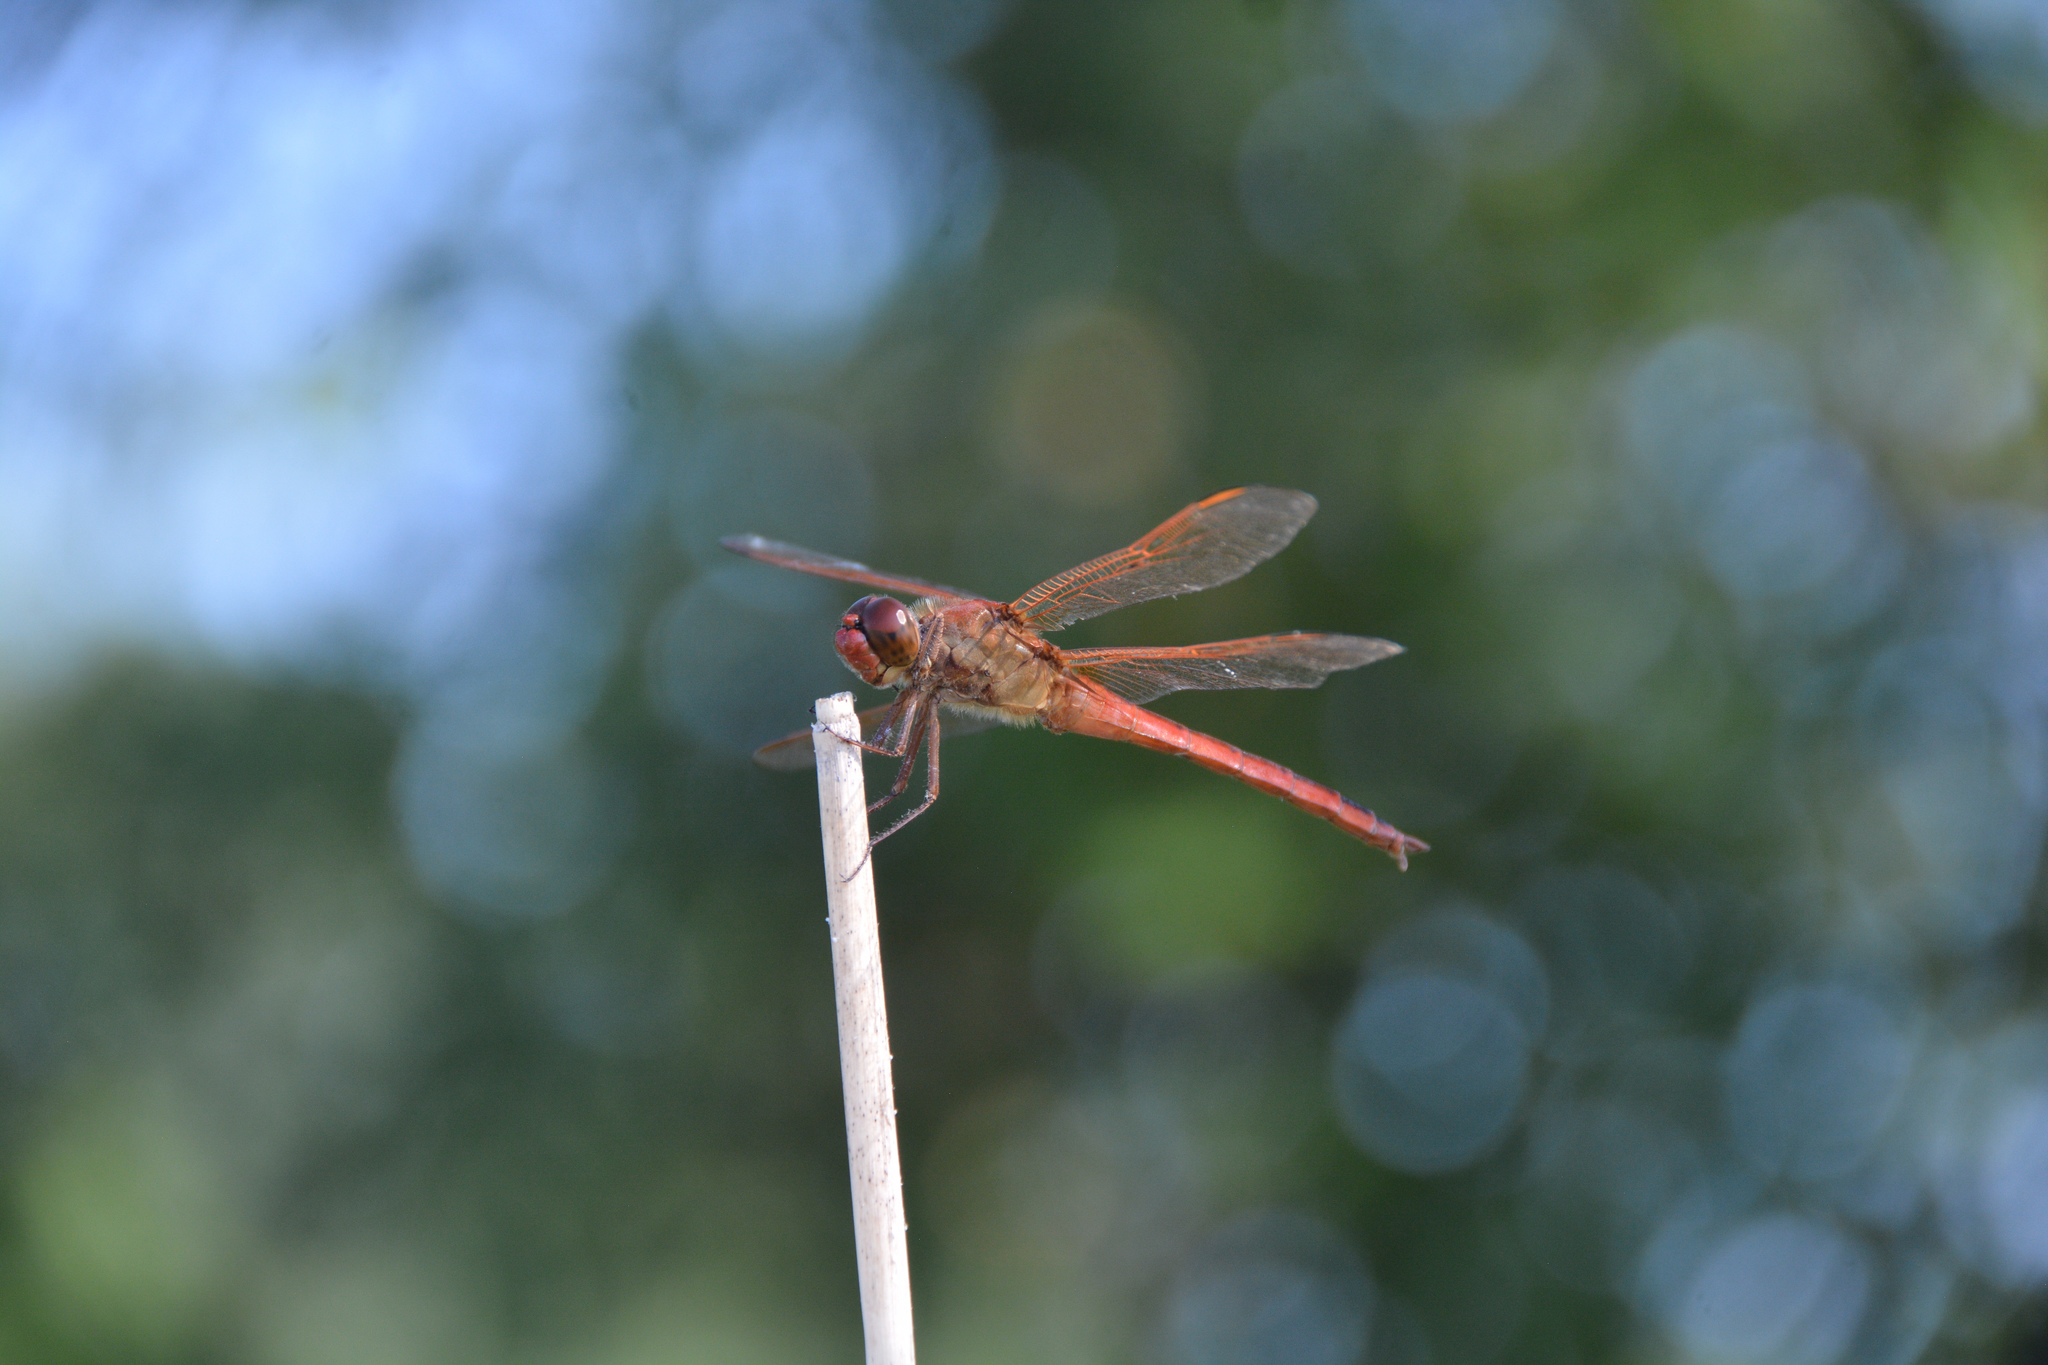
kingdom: Animalia
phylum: Arthropoda
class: Insecta
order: Odonata
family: Libellulidae
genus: Libellula
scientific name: Libellula needhami
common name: Needham's skimmer
